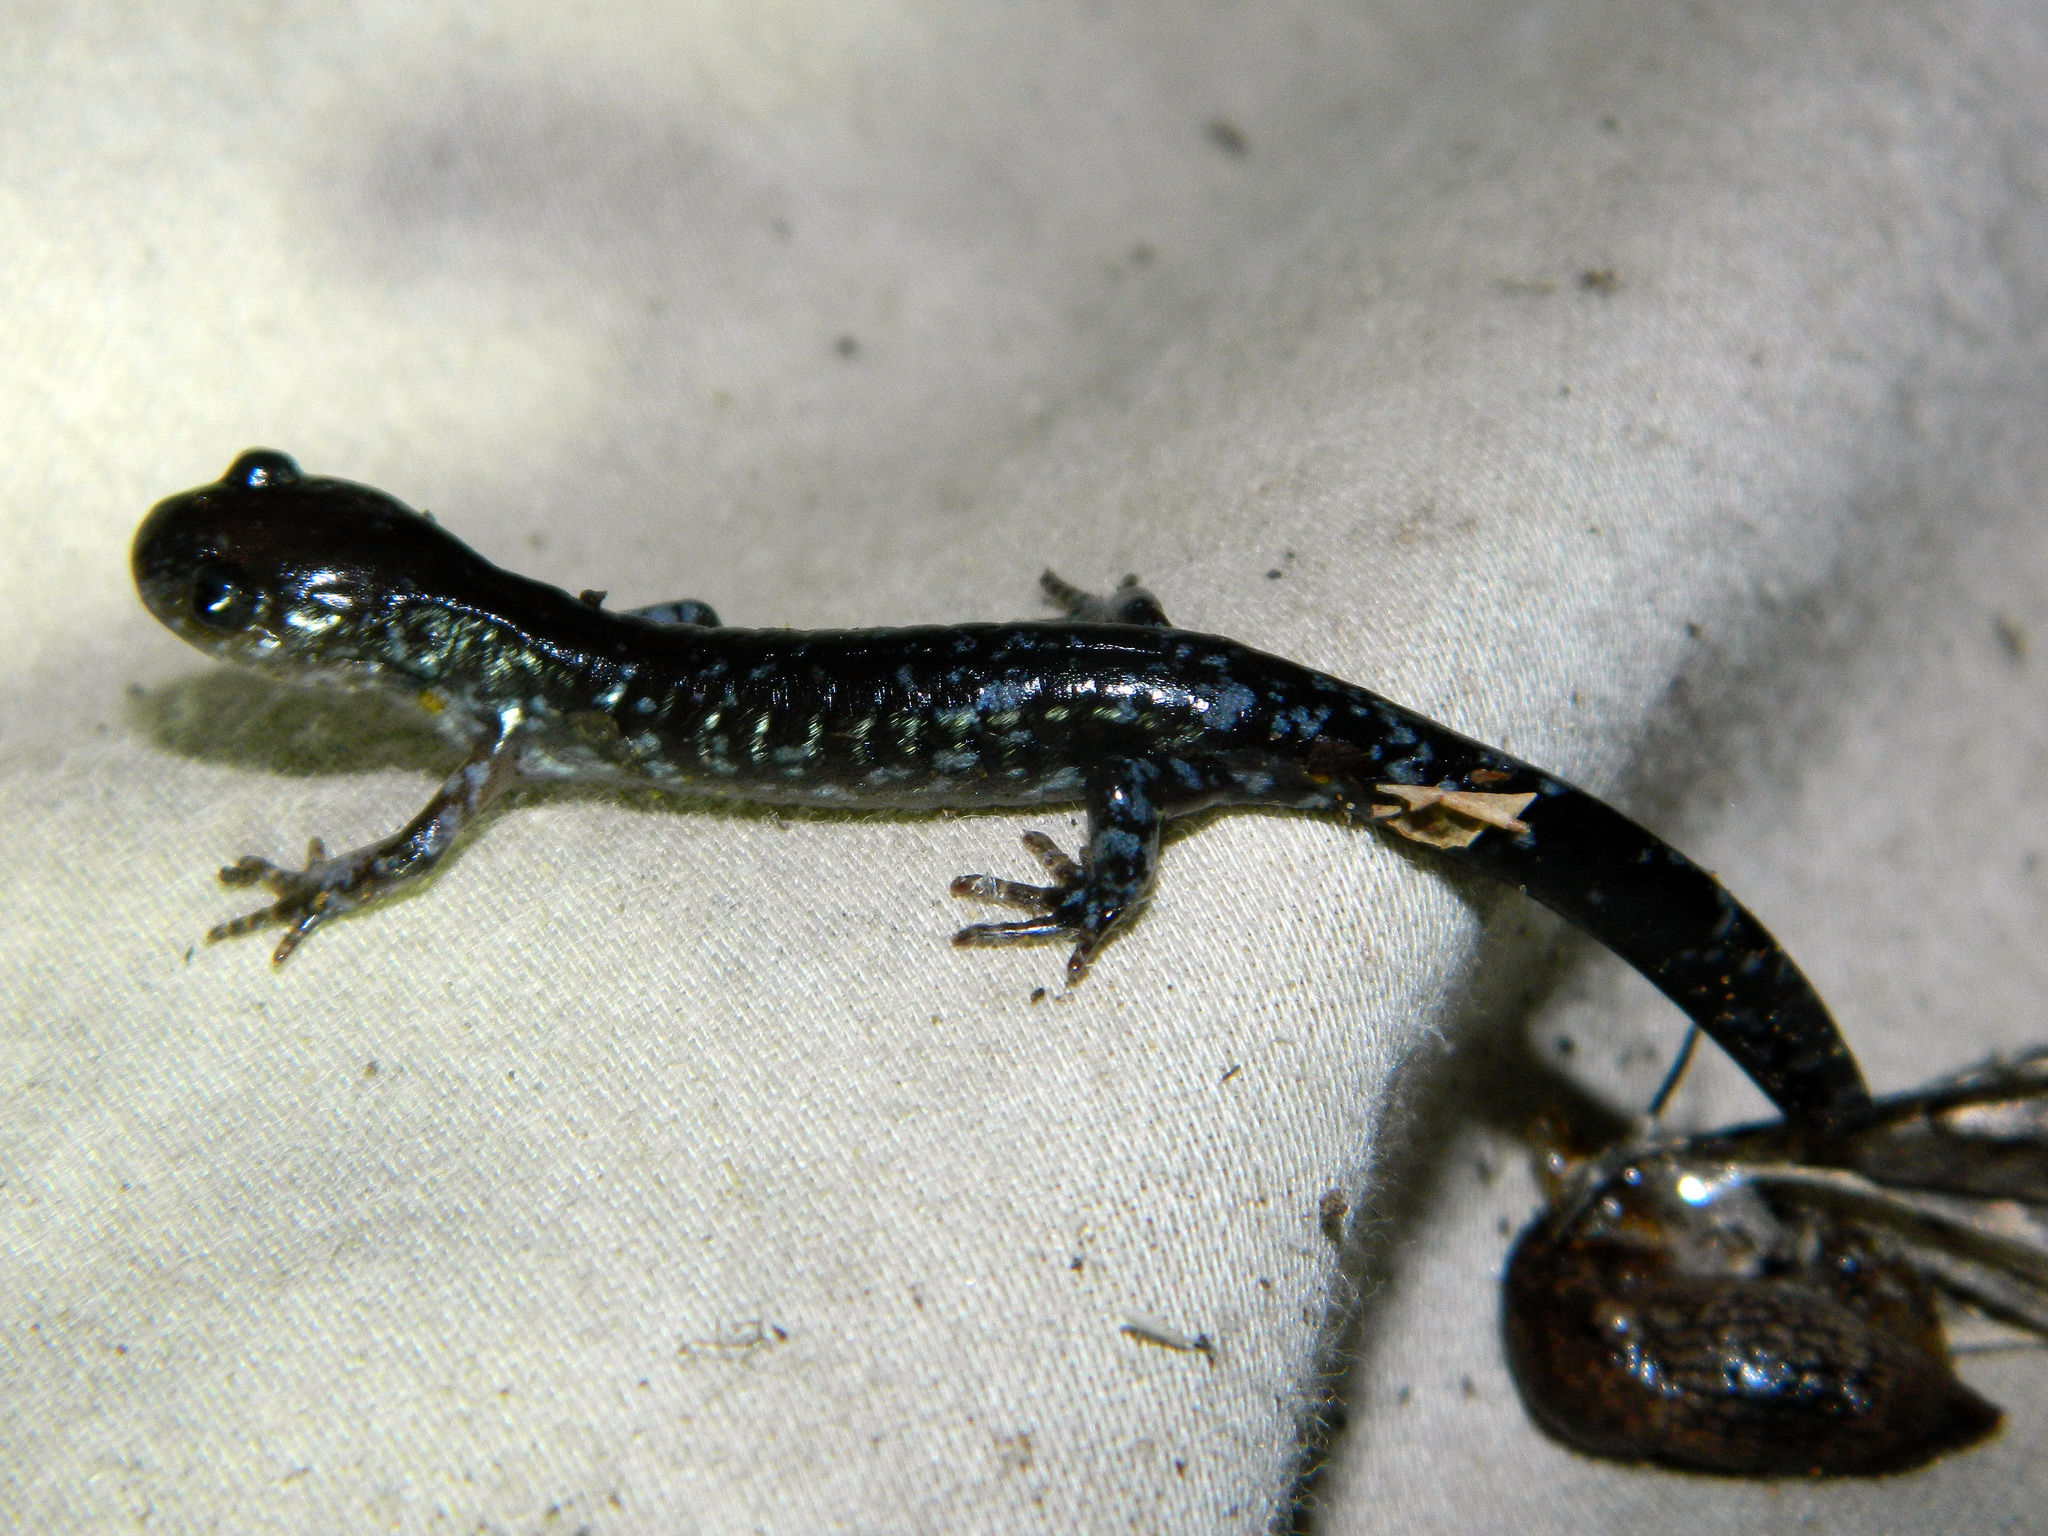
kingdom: Animalia
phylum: Chordata
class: Amphibia
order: Caudata
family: Ambystomatidae
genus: Ambystoma
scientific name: Ambystoma laterale
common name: Blue-spotted salamander
